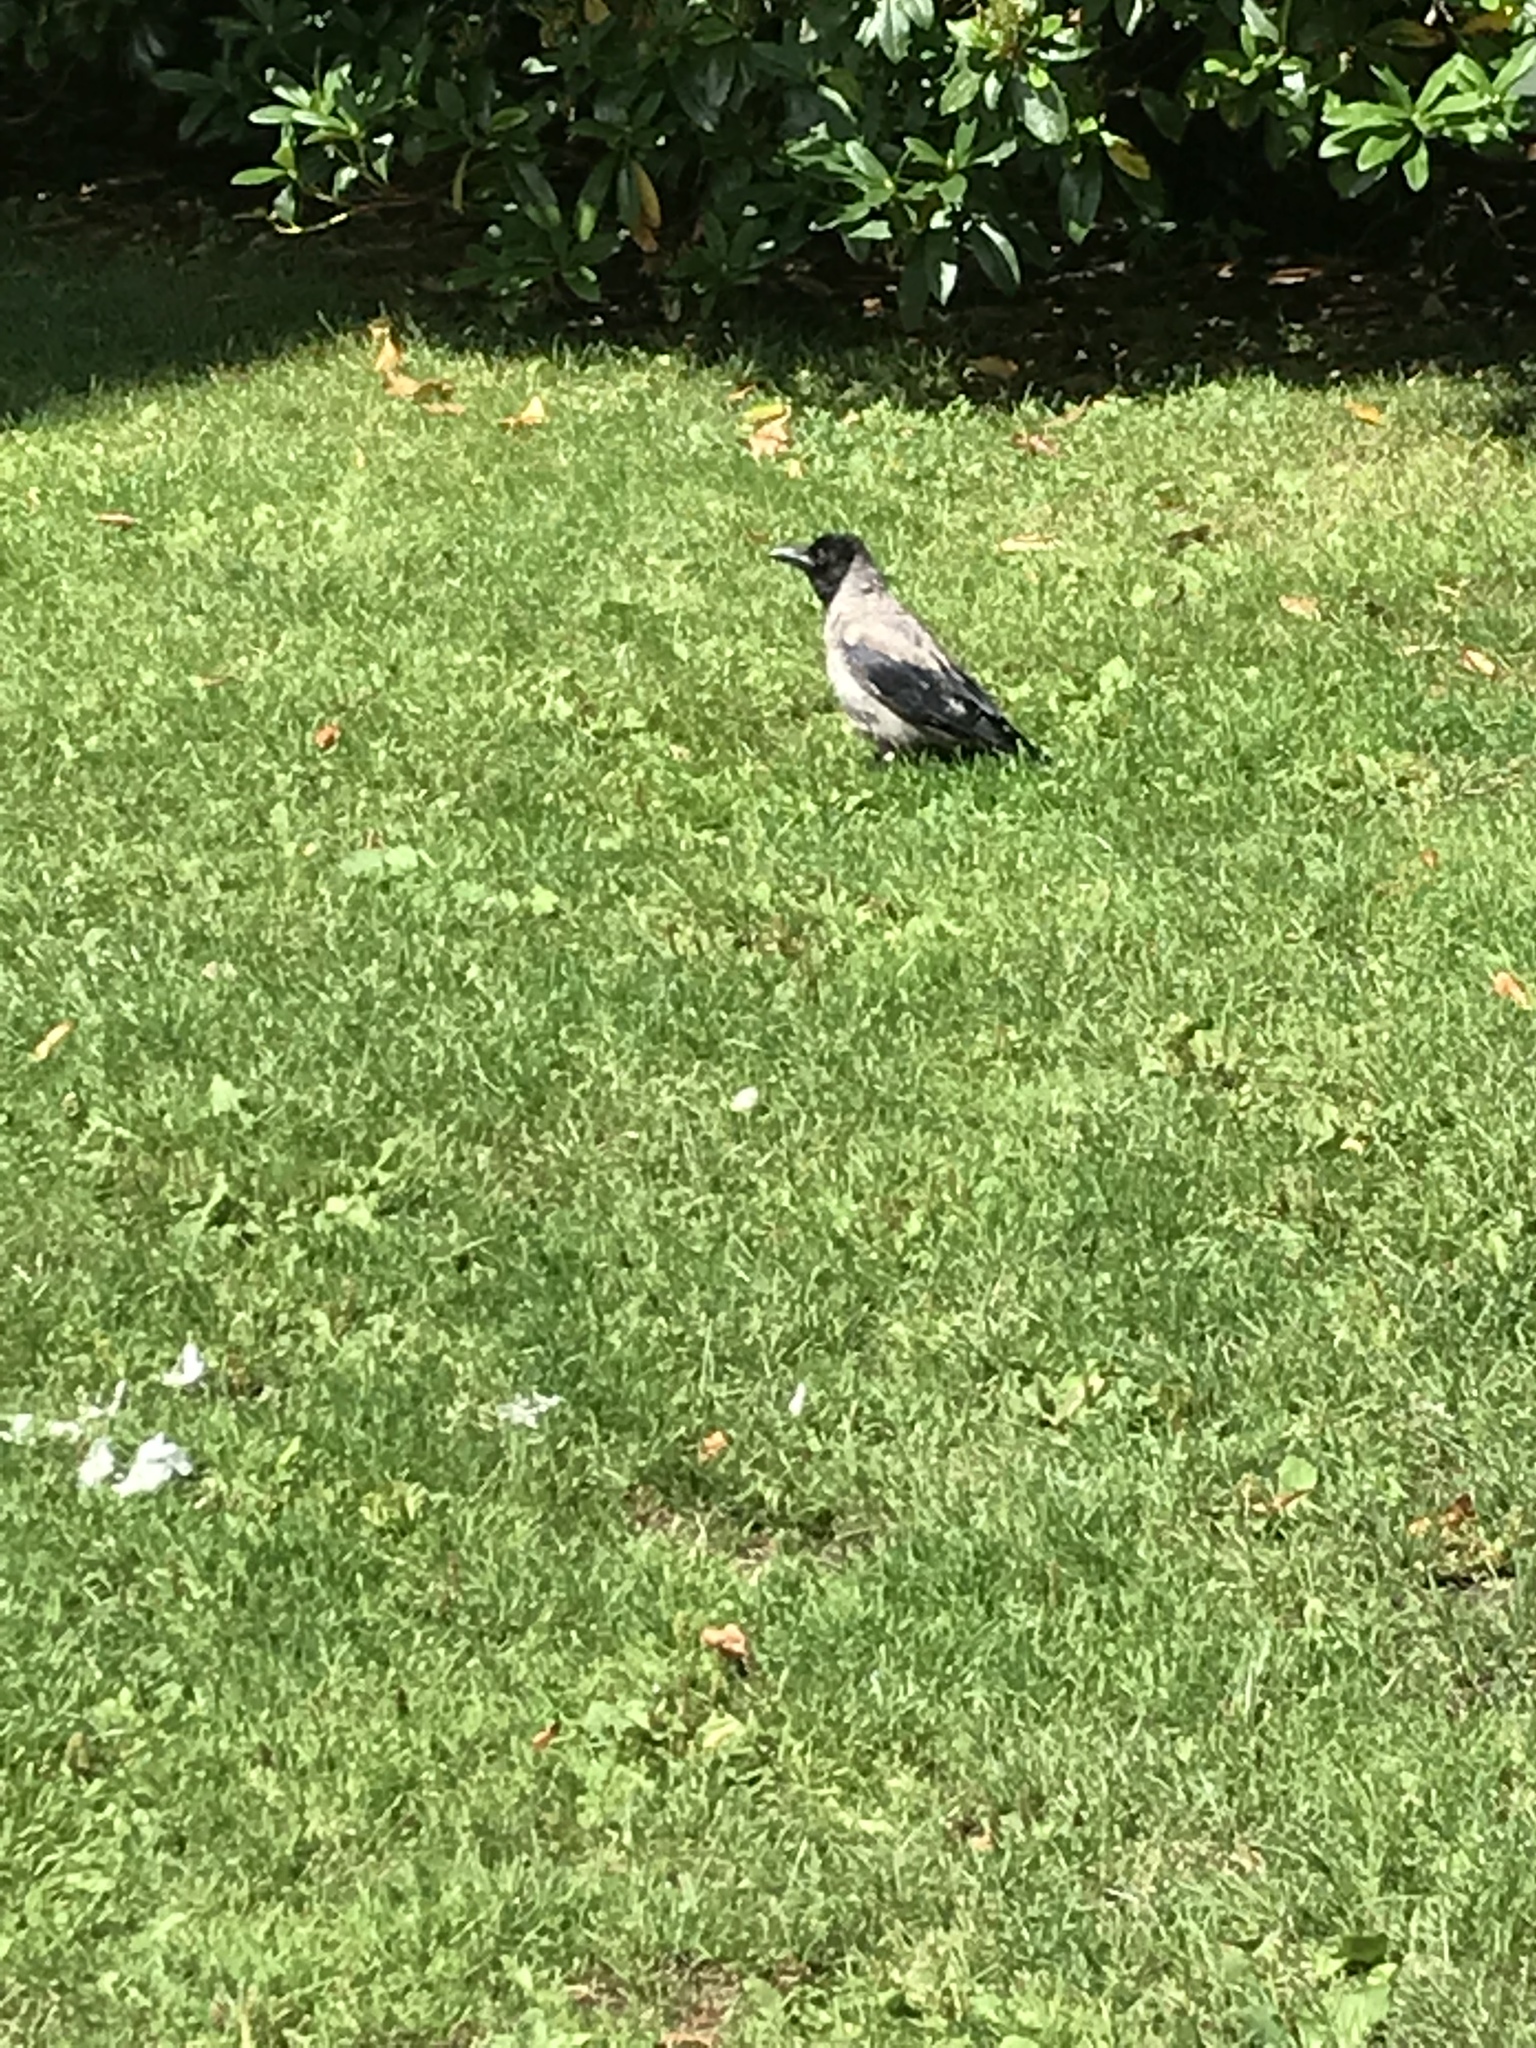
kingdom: Animalia
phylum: Chordata
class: Aves
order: Passeriformes
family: Corvidae
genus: Corvus
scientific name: Corvus cornix
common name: Hooded crow
